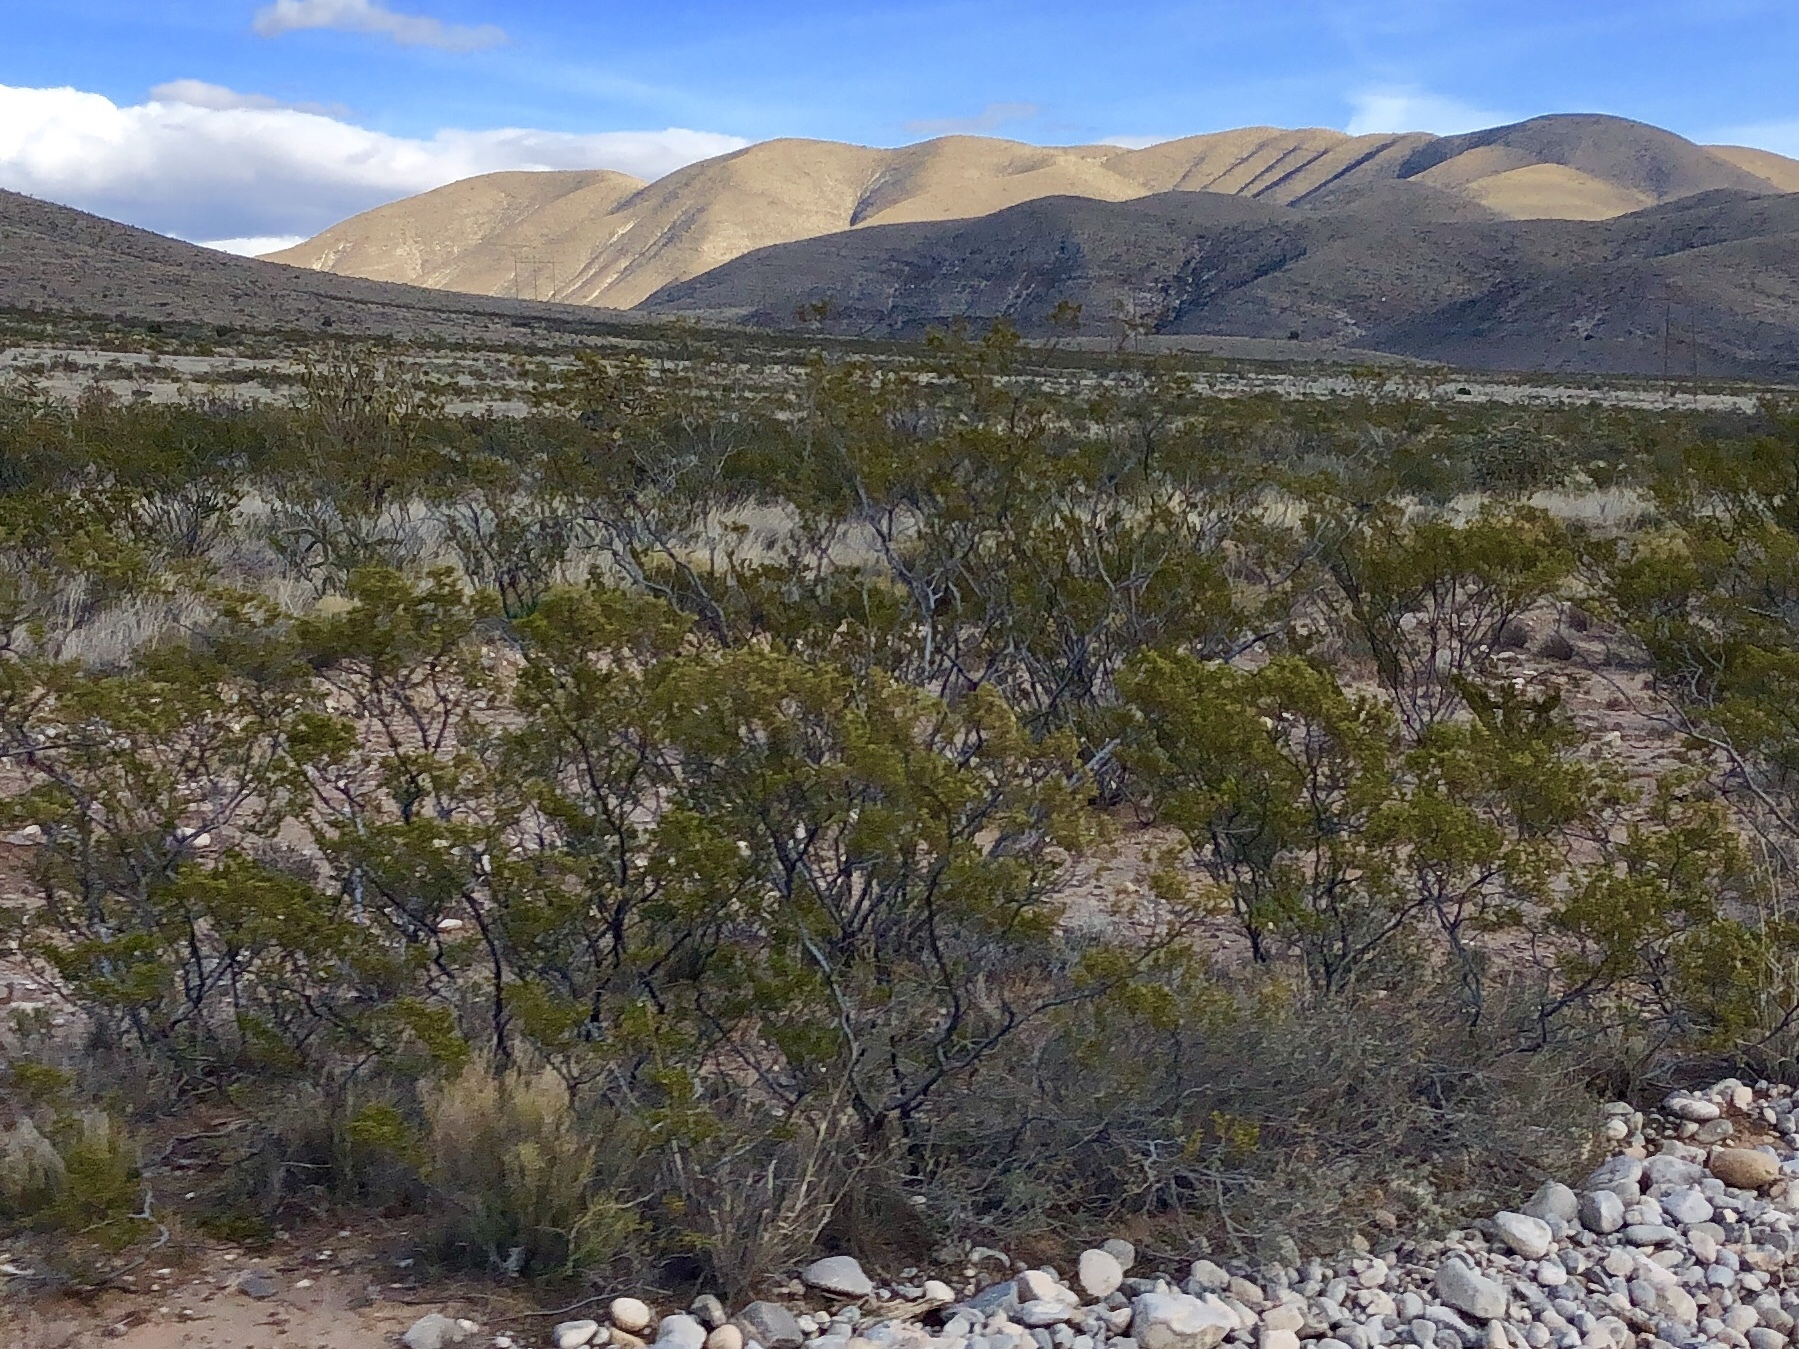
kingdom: Plantae
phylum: Tracheophyta
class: Magnoliopsida
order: Zygophyllales
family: Zygophyllaceae
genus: Larrea
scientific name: Larrea tridentata
